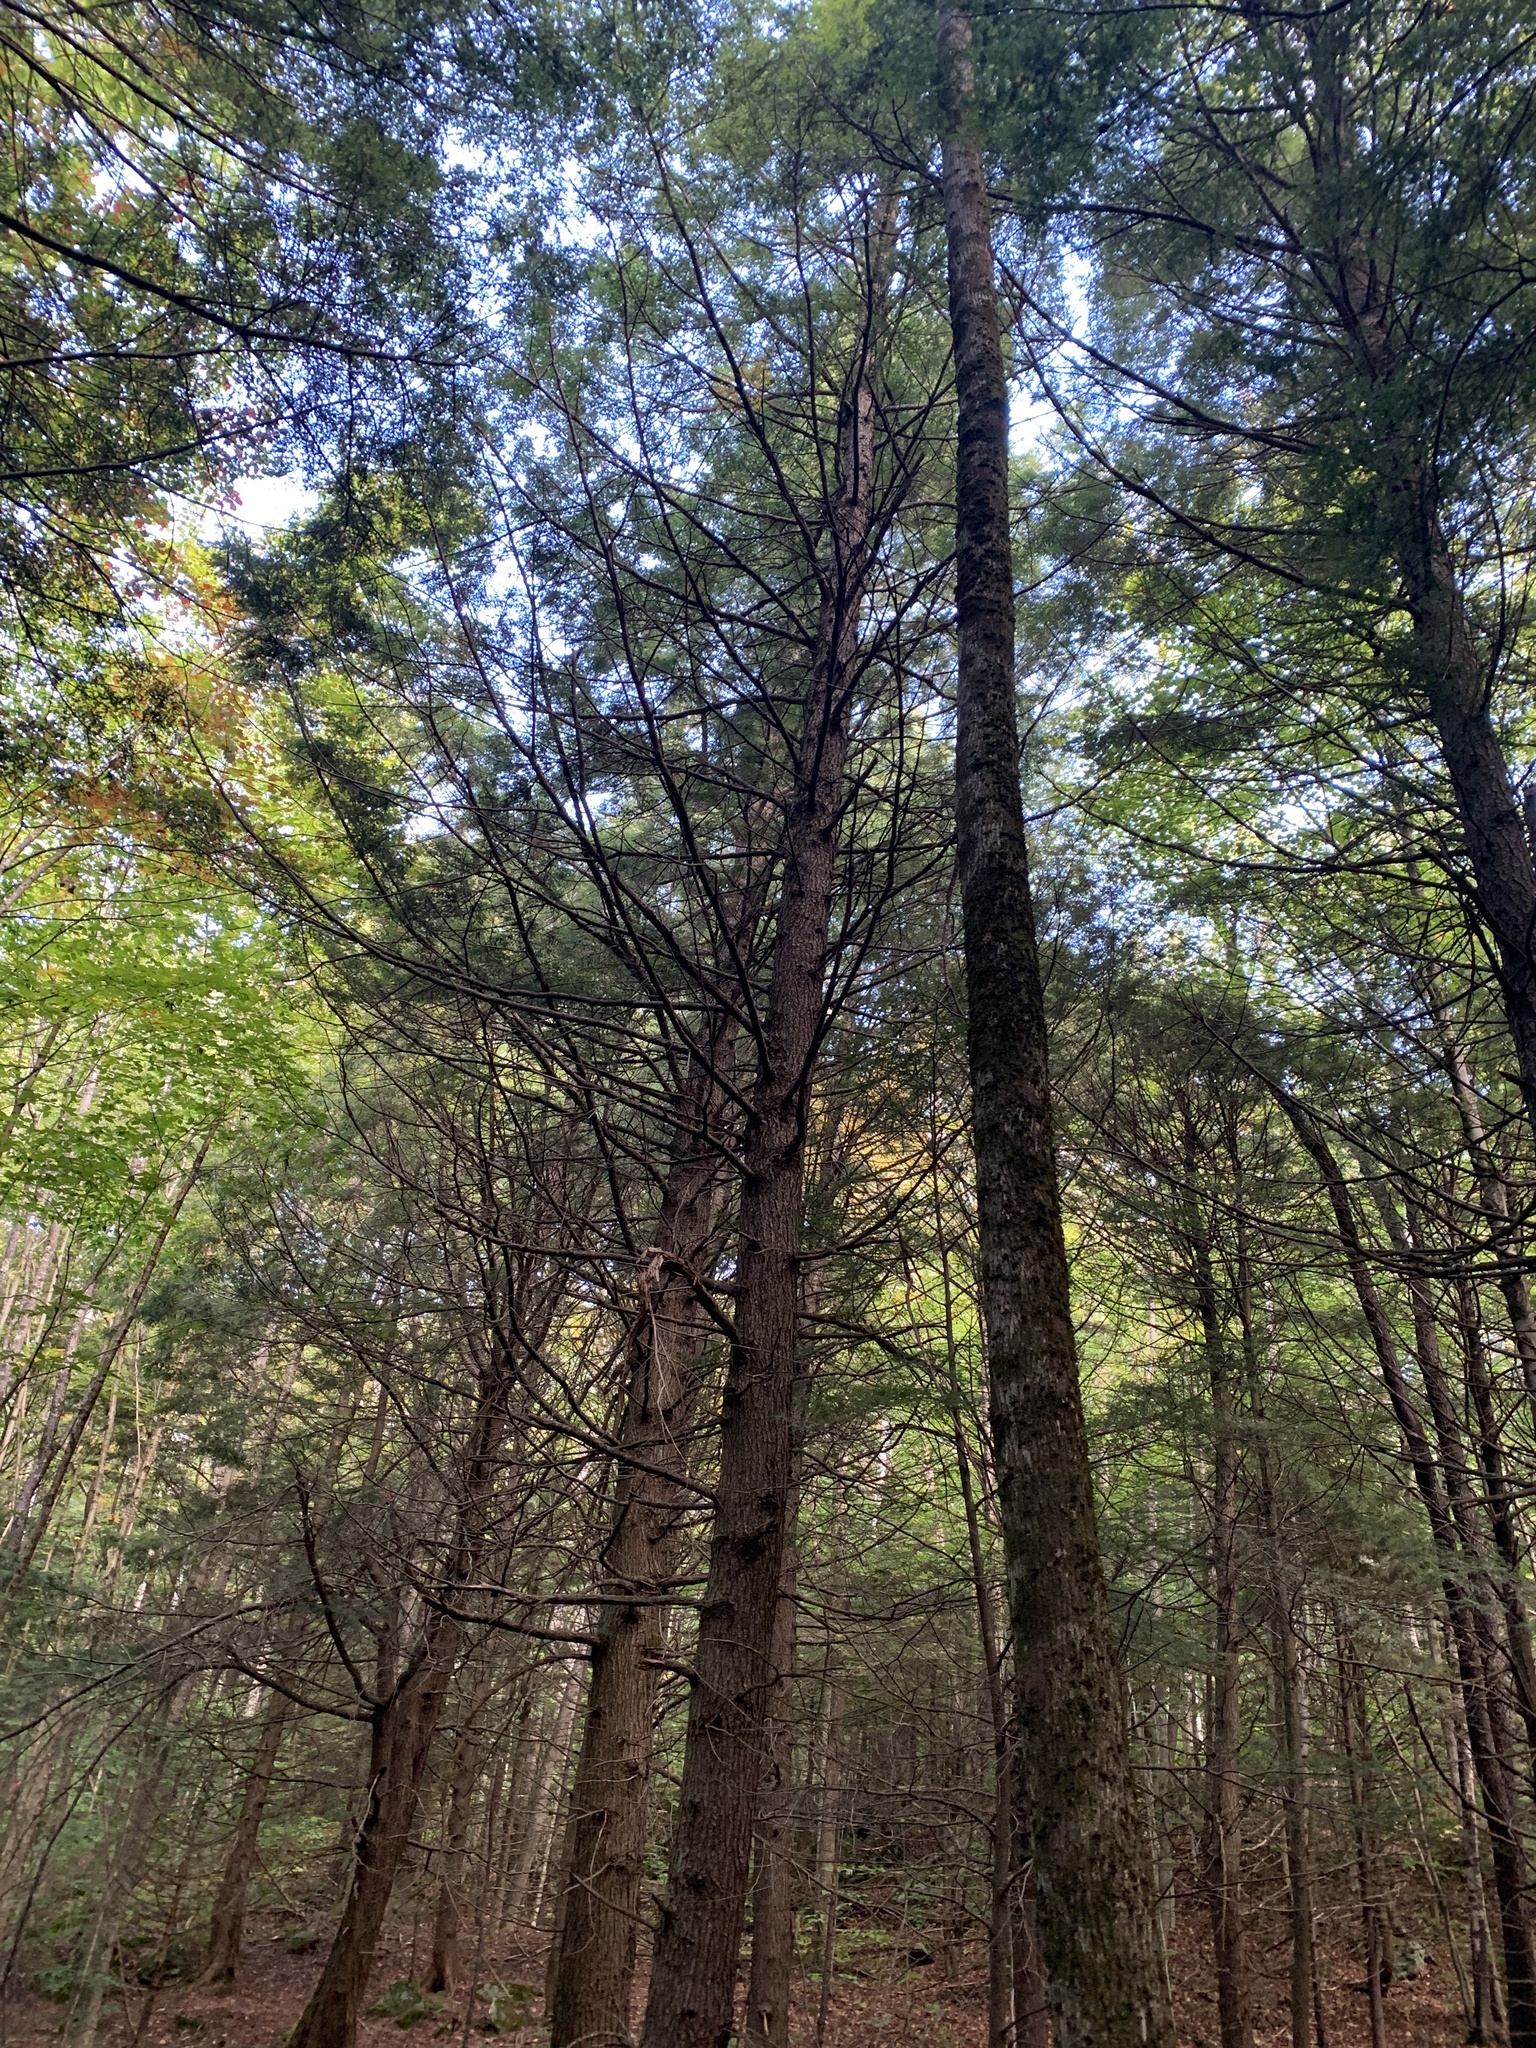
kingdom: Plantae
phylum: Tracheophyta
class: Pinopsida
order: Pinales
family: Pinaceae
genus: Tsuga
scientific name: Tsuga canadensis
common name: Eastern hemlock
